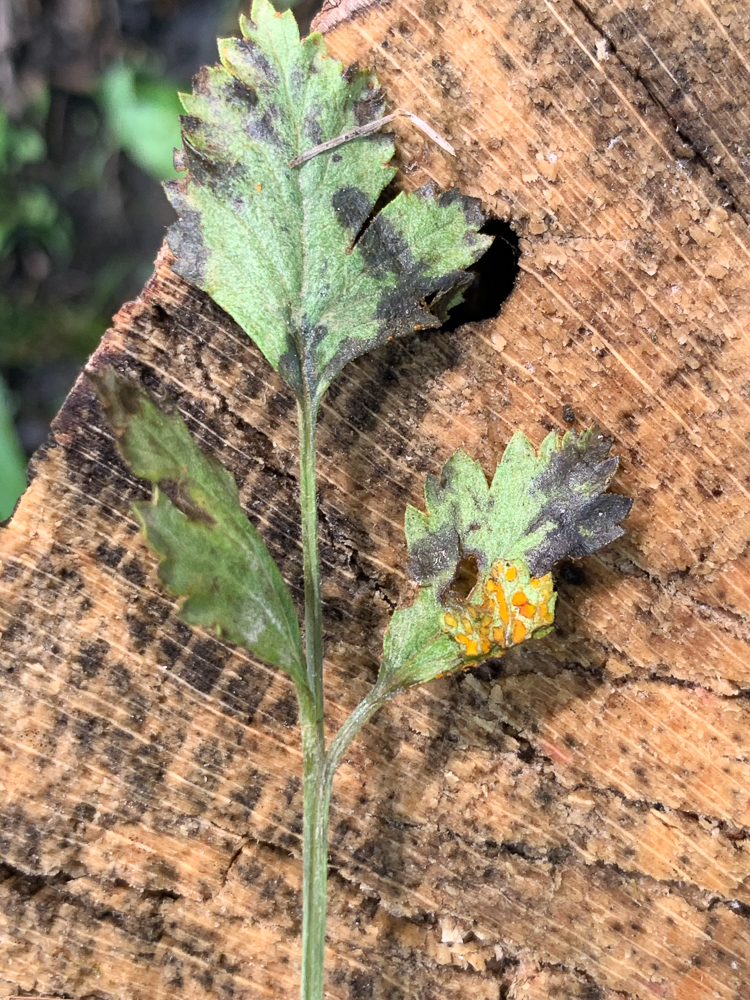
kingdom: Fungi
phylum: Basidiomycota
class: Pucciniomycetes
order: Pucciniales
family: Phragmidiaceae
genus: Arthuriomyces
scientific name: Arthuriomyces peckianus
